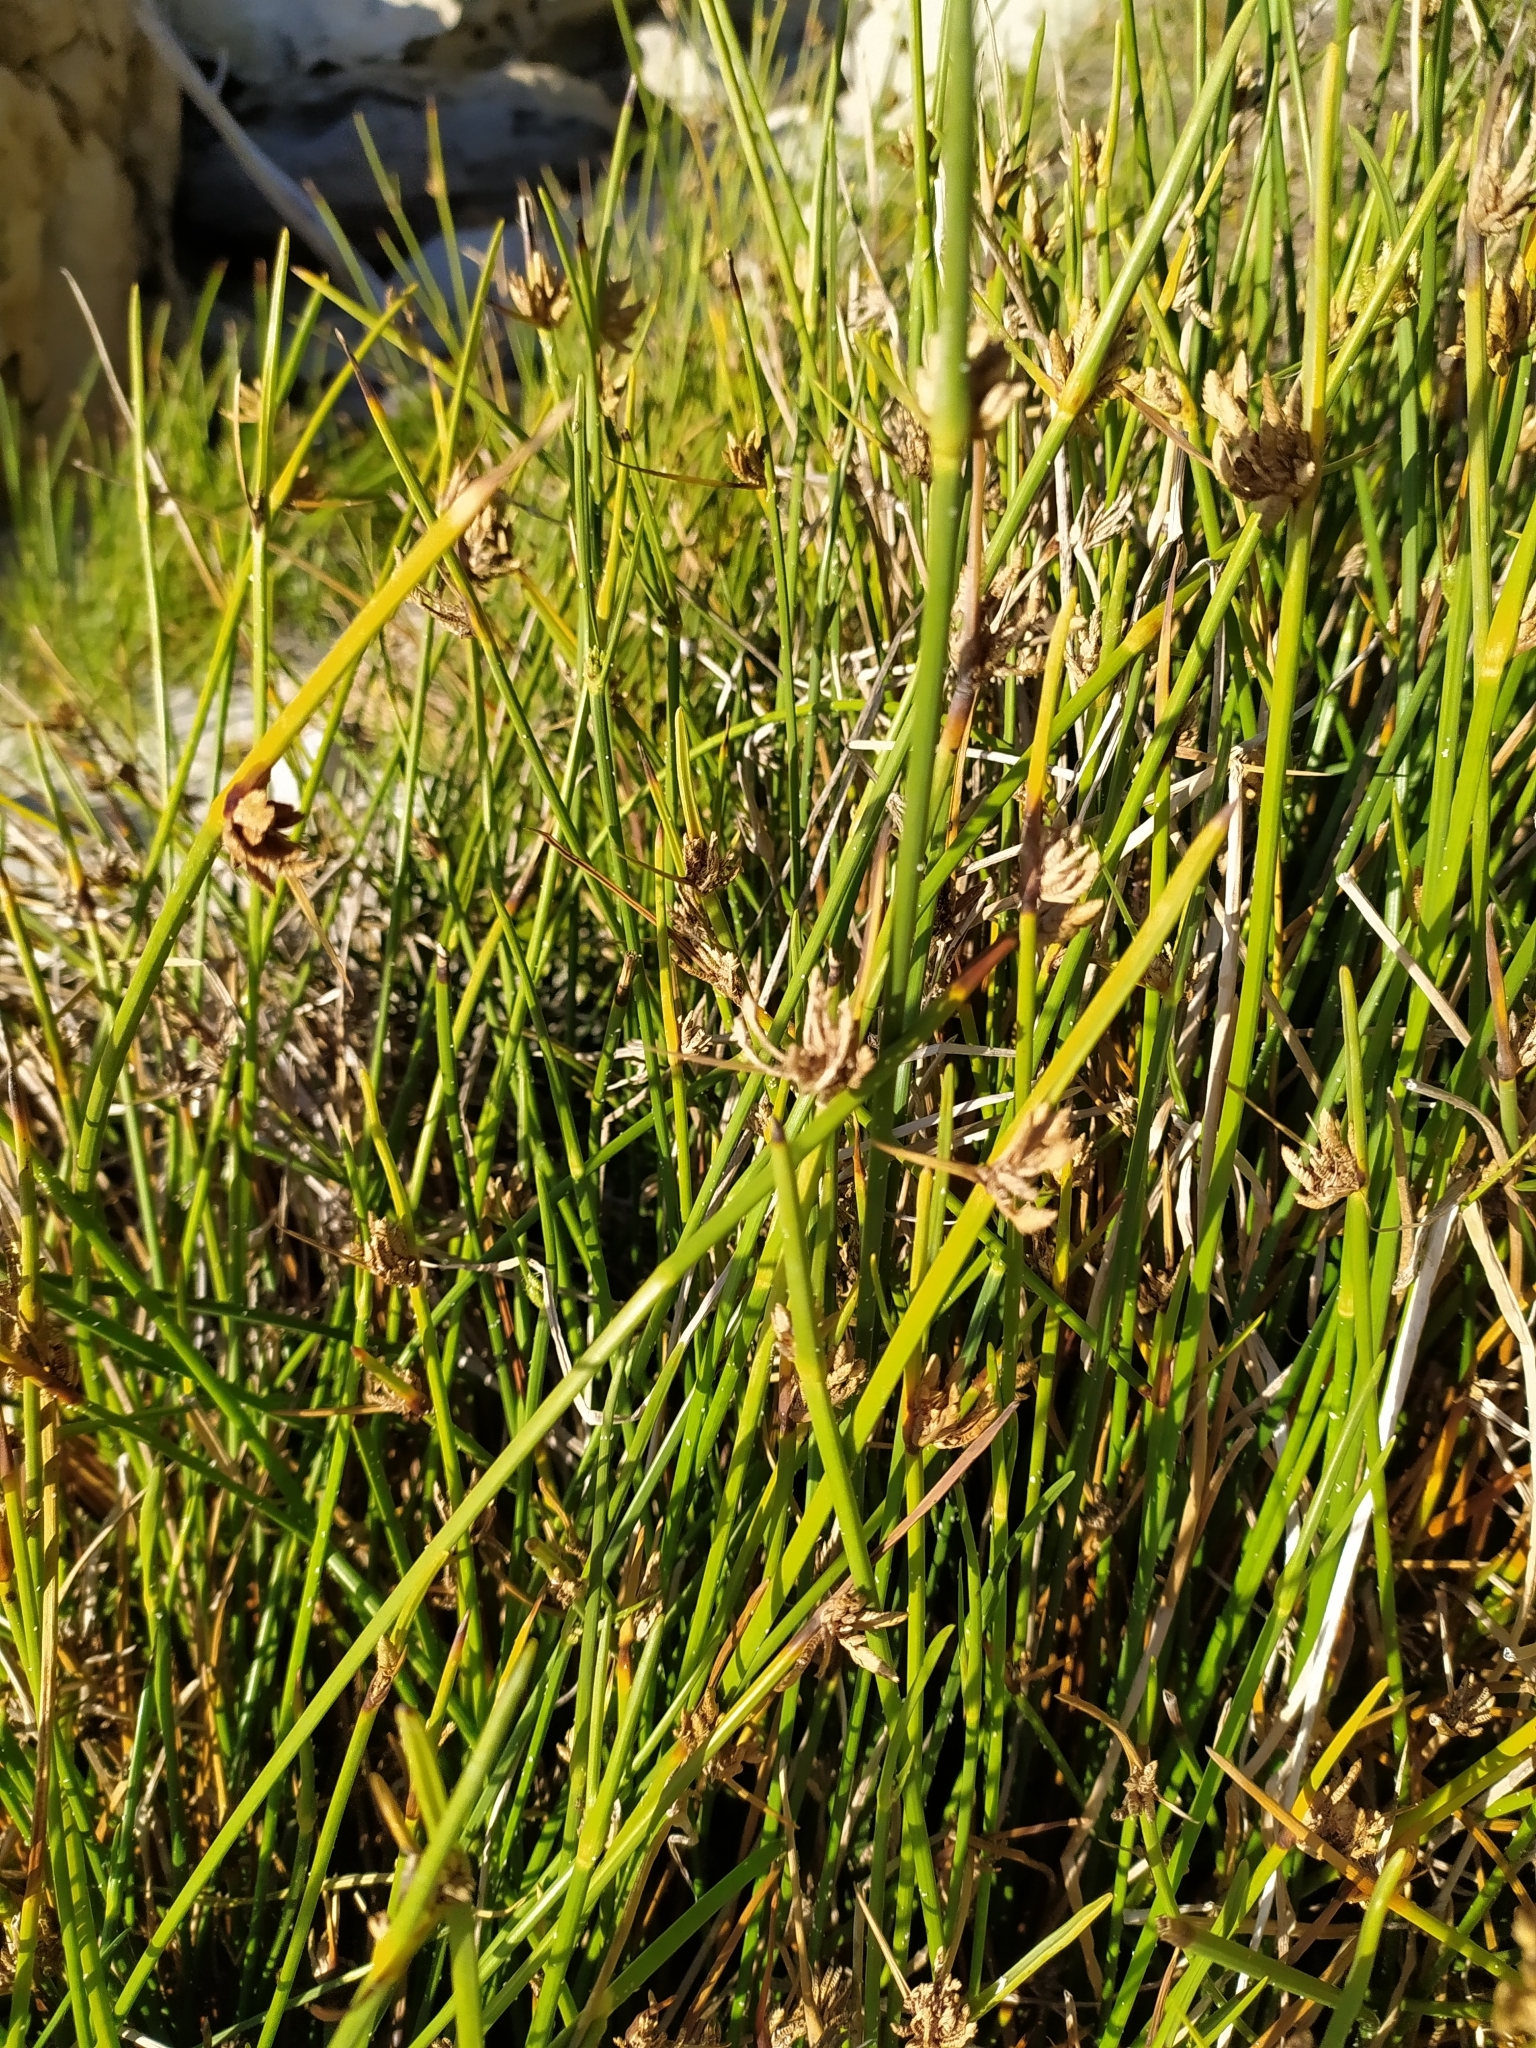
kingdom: Plantae
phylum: Tracheophyta
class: Liliopsida
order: Poales
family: Cyperaceae
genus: Cyperus
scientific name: Cyperus laevigatus
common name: Smooth flat sedge
